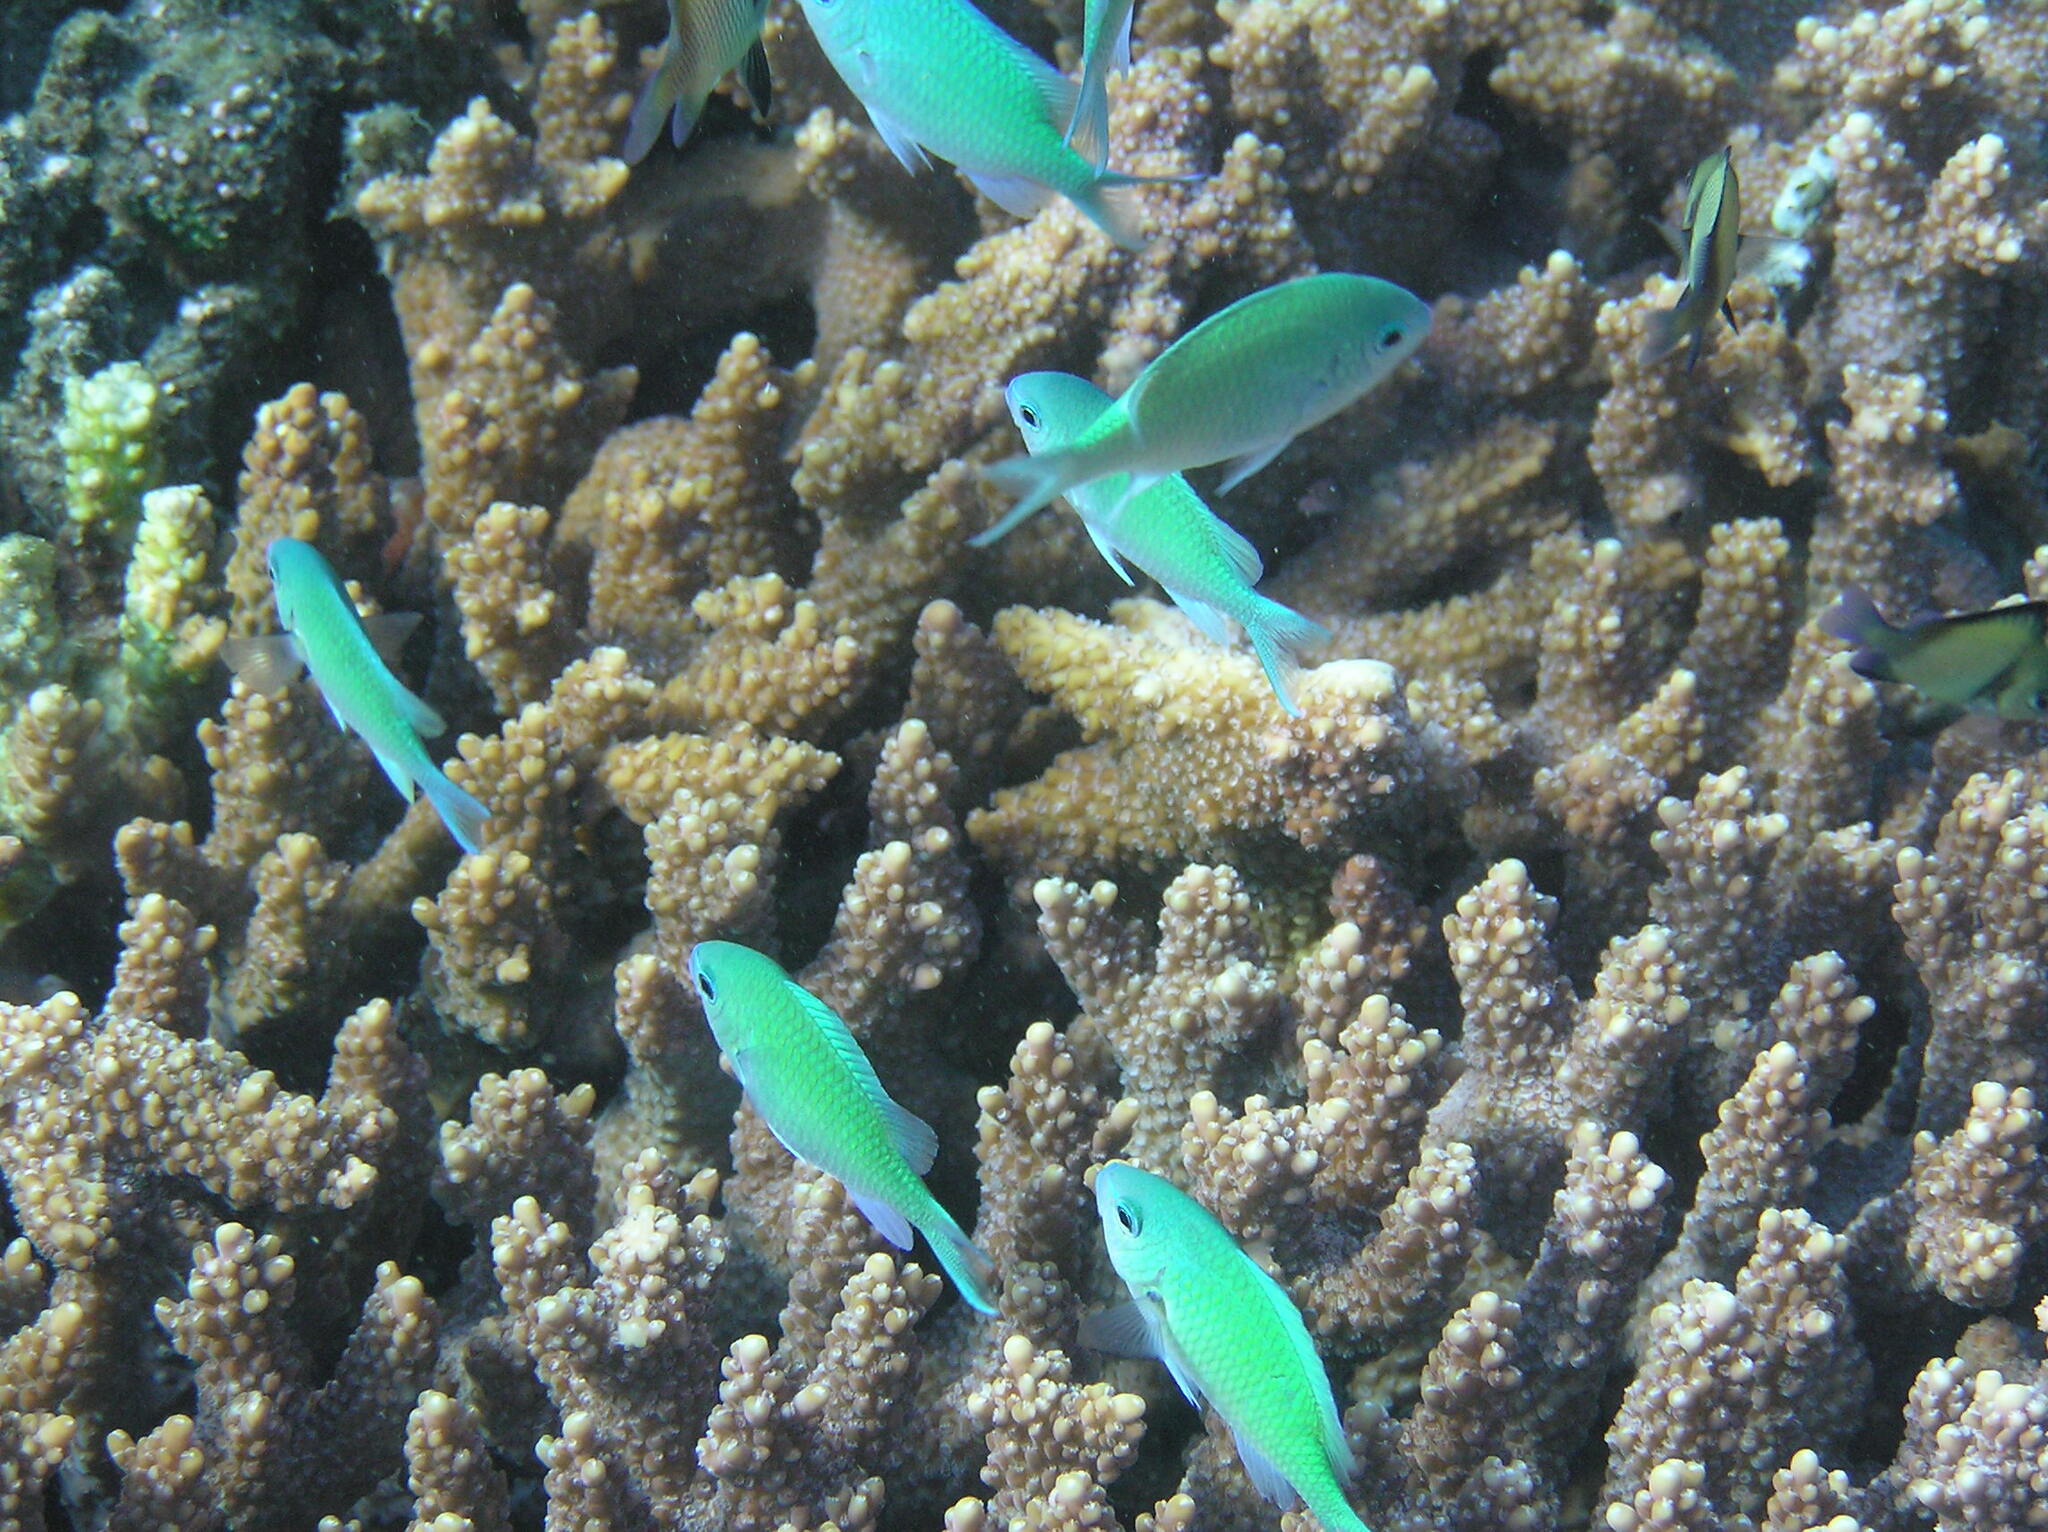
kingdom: Animalia
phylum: Chordata
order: Perciformes
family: Pomacentridae
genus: Chromis
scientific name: Chromis viridis
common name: Blue-green chromis
